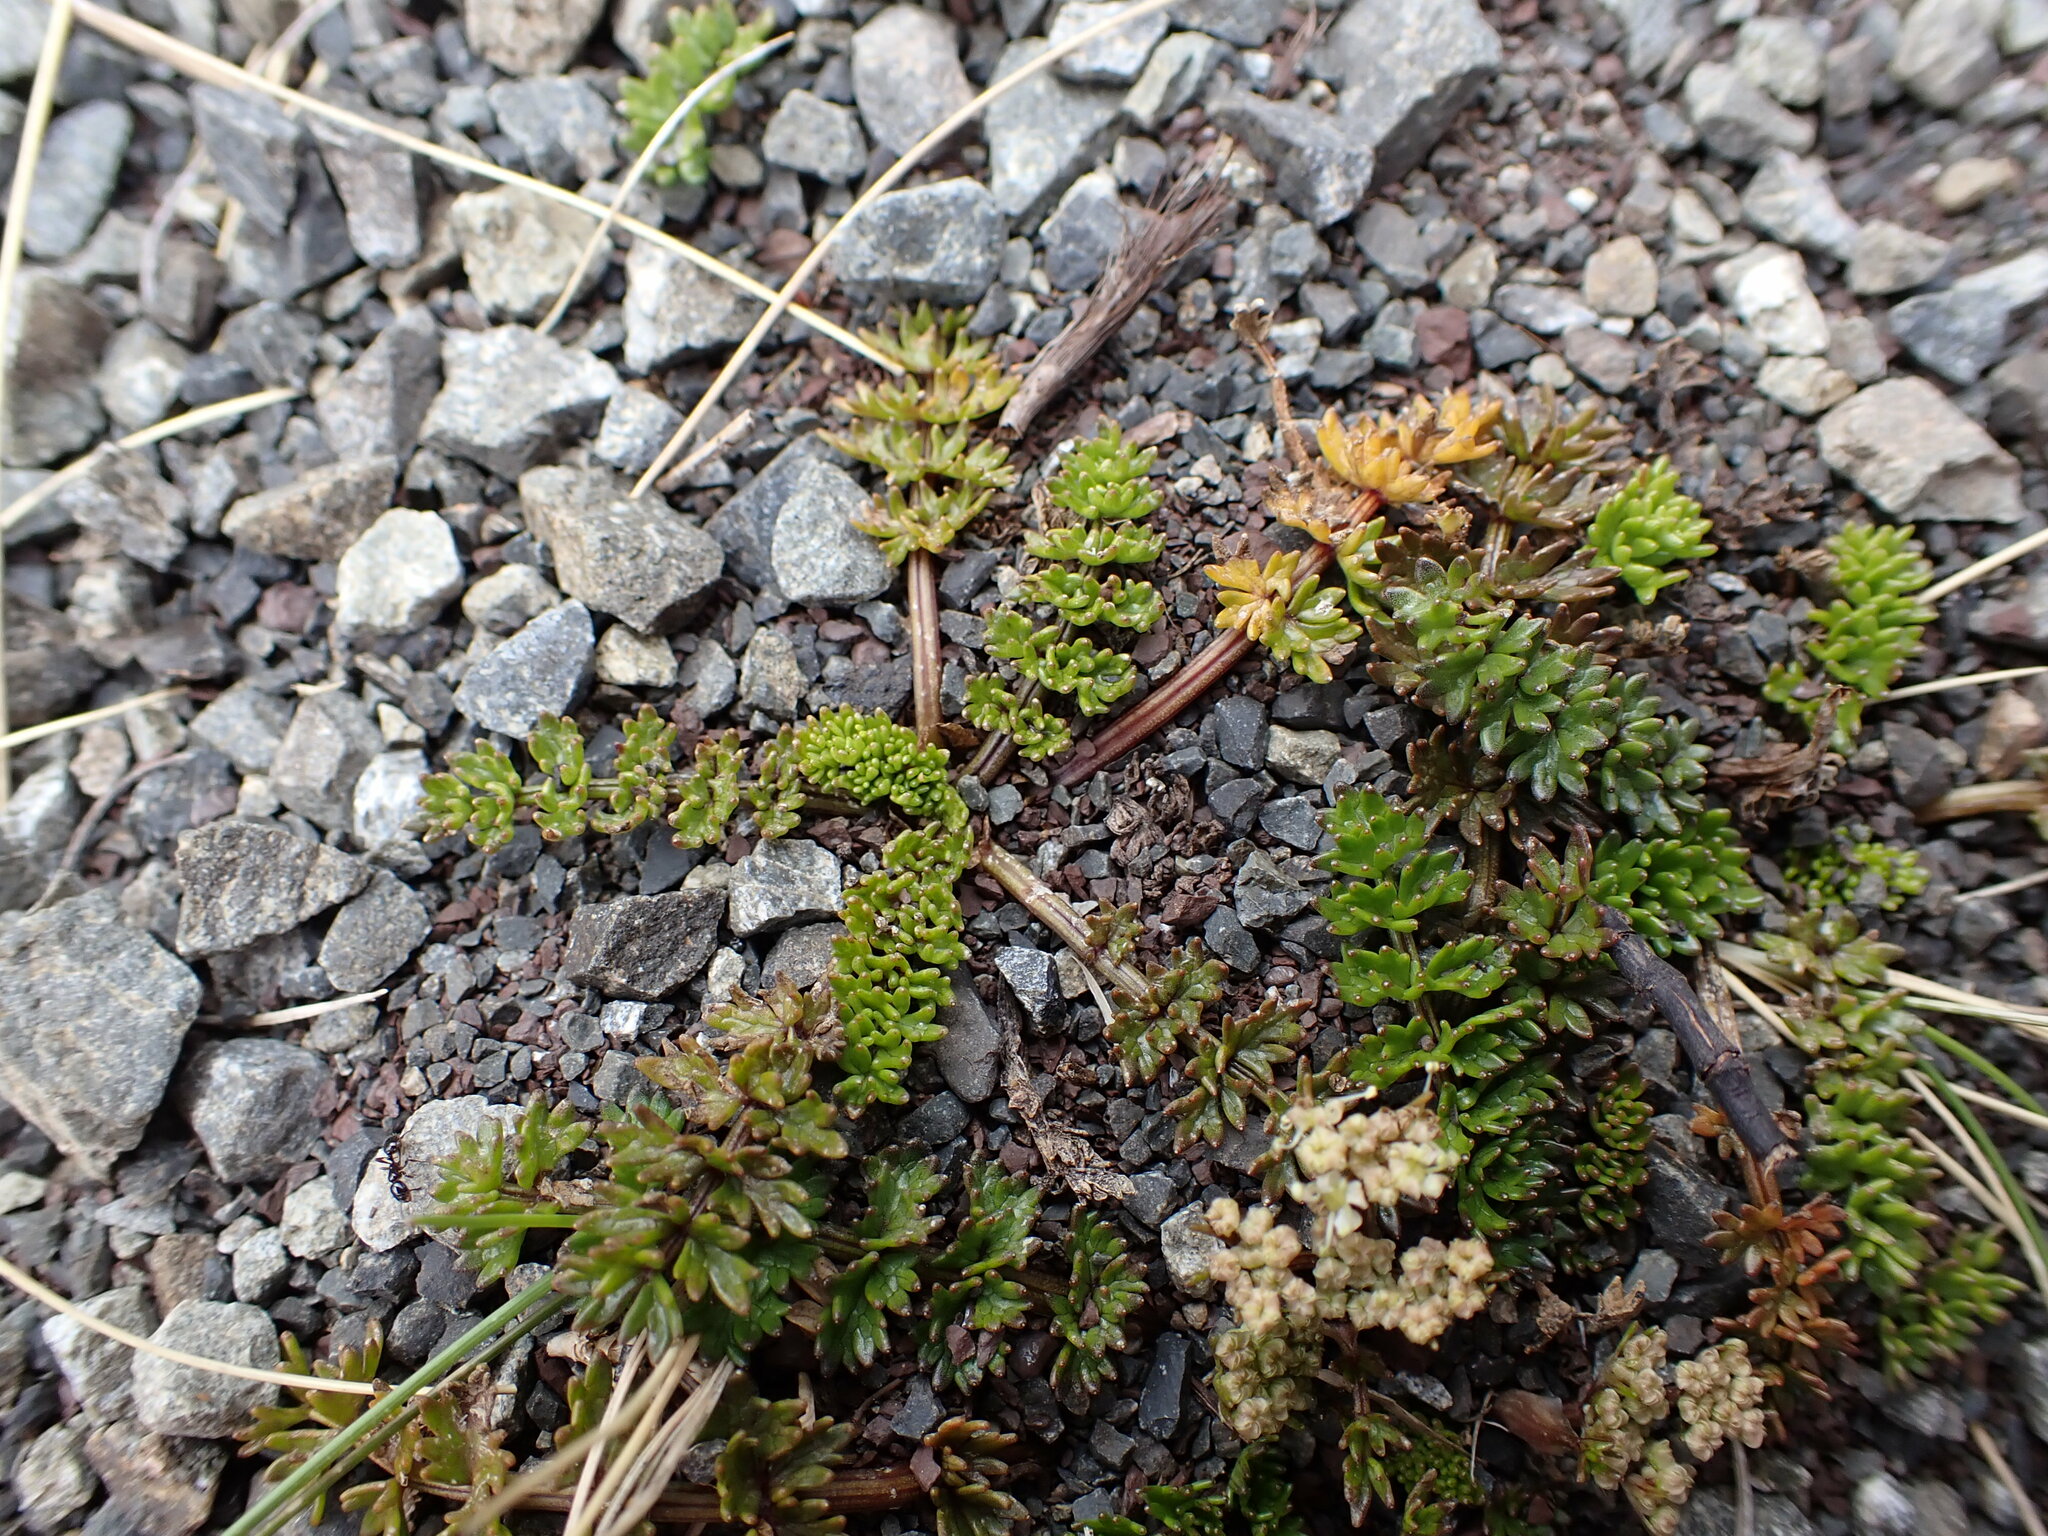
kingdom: Plantae
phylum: Tracheophyta
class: Magnoliopsida
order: Apiales
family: Apiaceae
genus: Gingidia
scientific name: Gingidia decipiens
